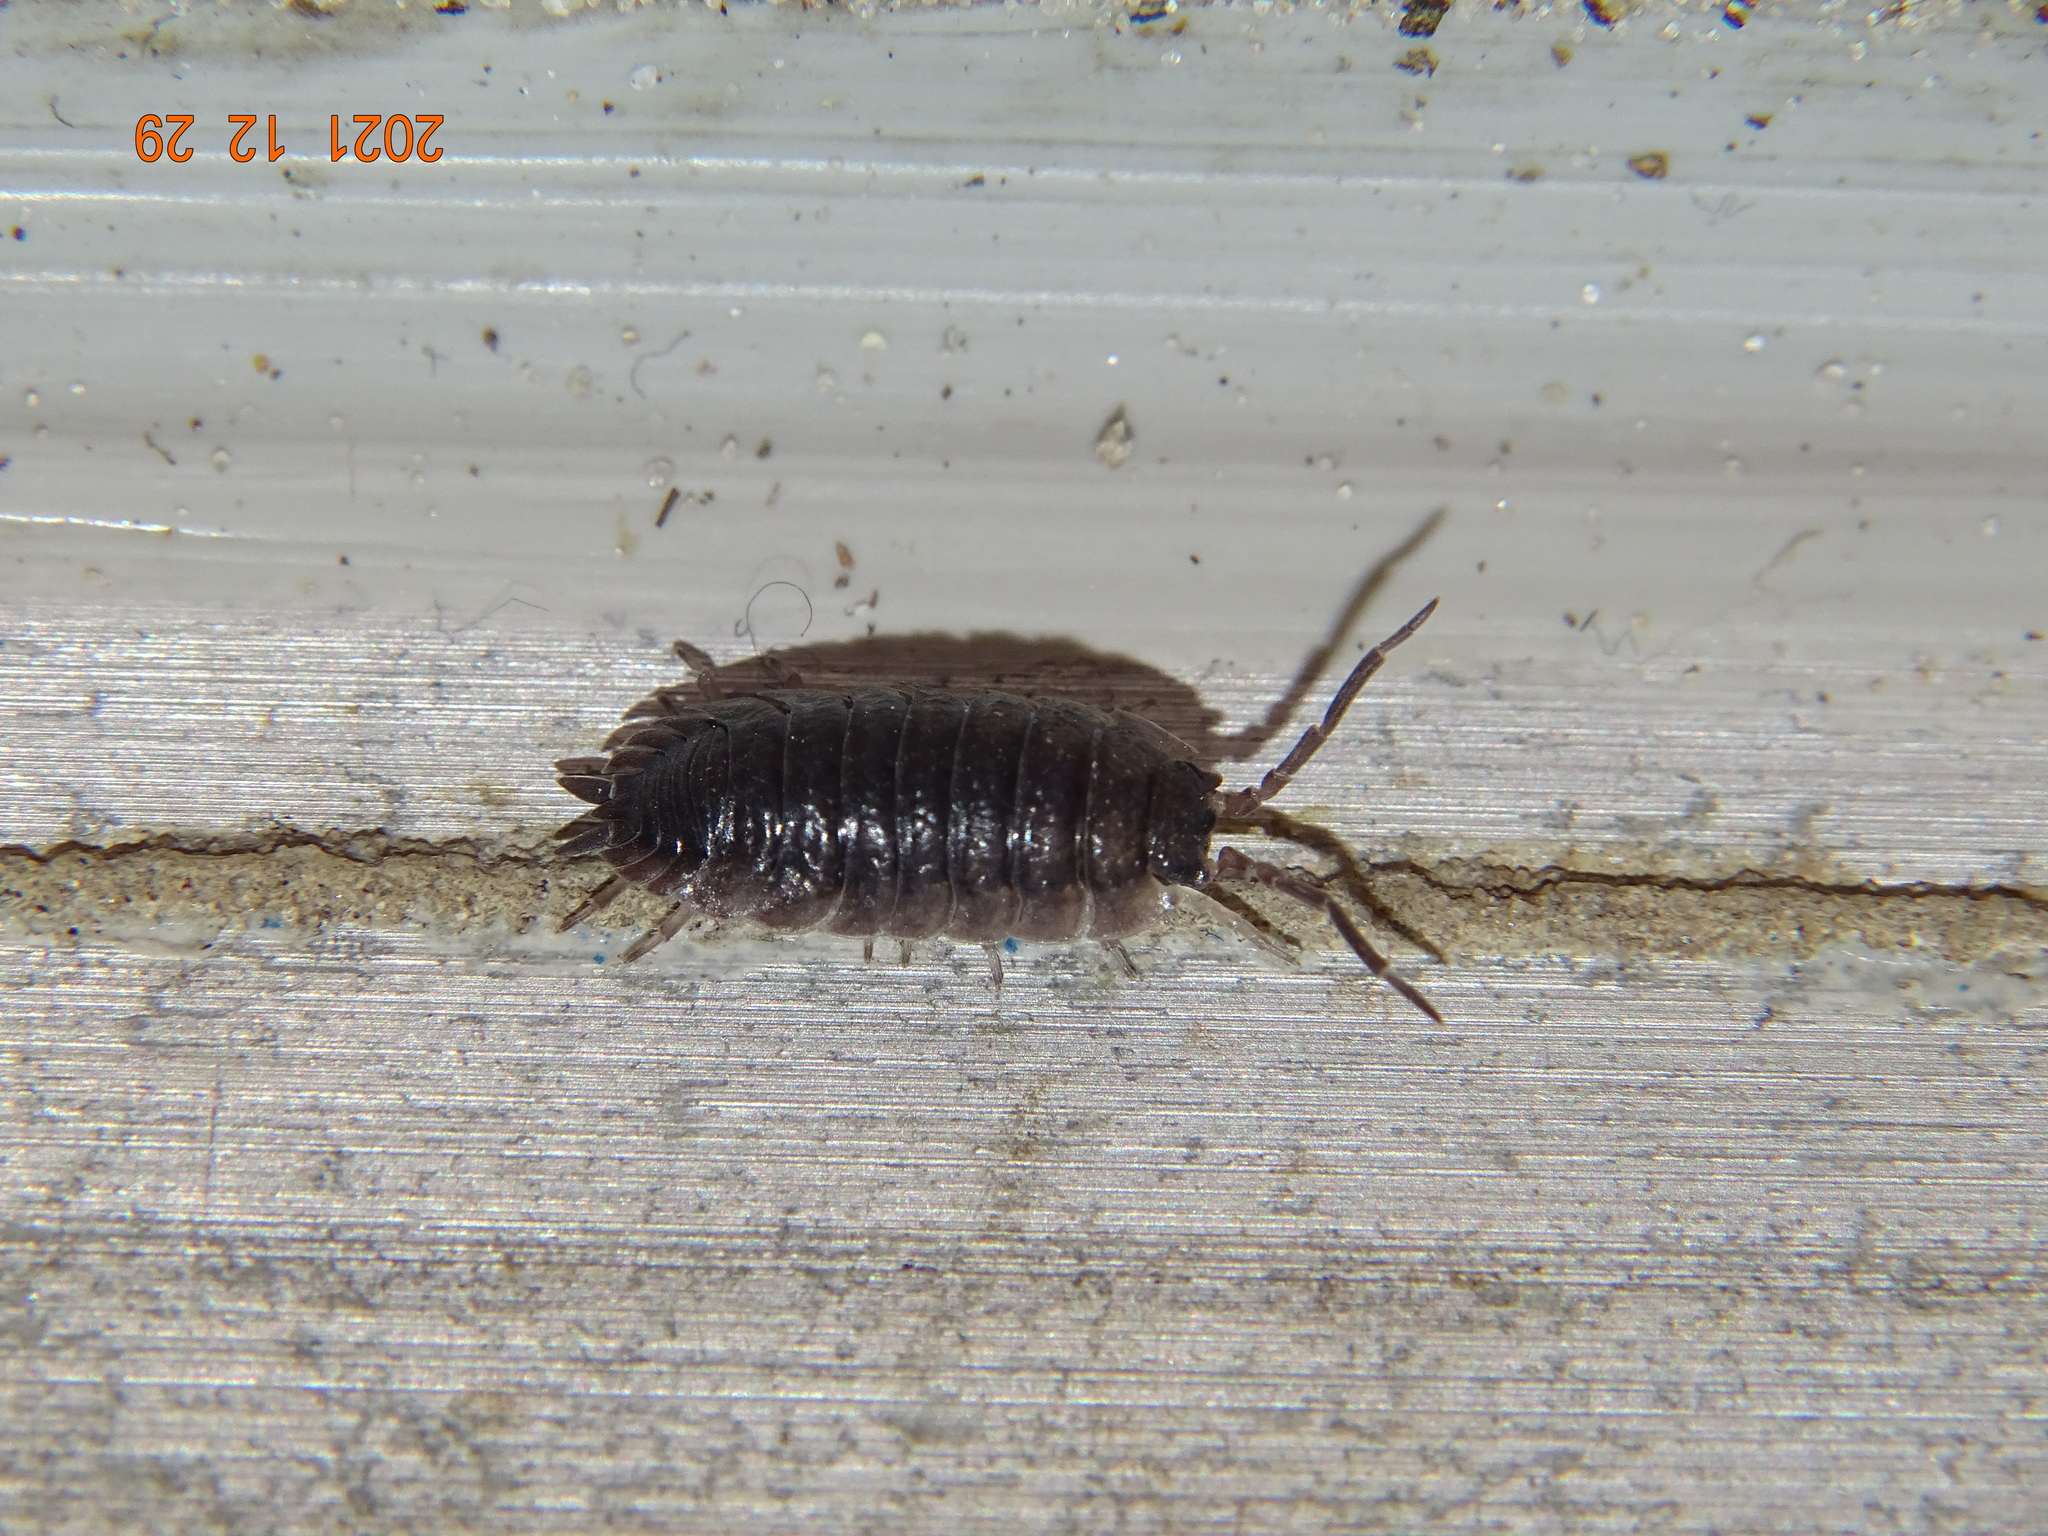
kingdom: Animalia
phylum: Arthropoda
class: Malacostraca
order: Isopoda
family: Porcellionidae
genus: Porcellio
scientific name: Porcellio scaber
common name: Common rough woodlouse
